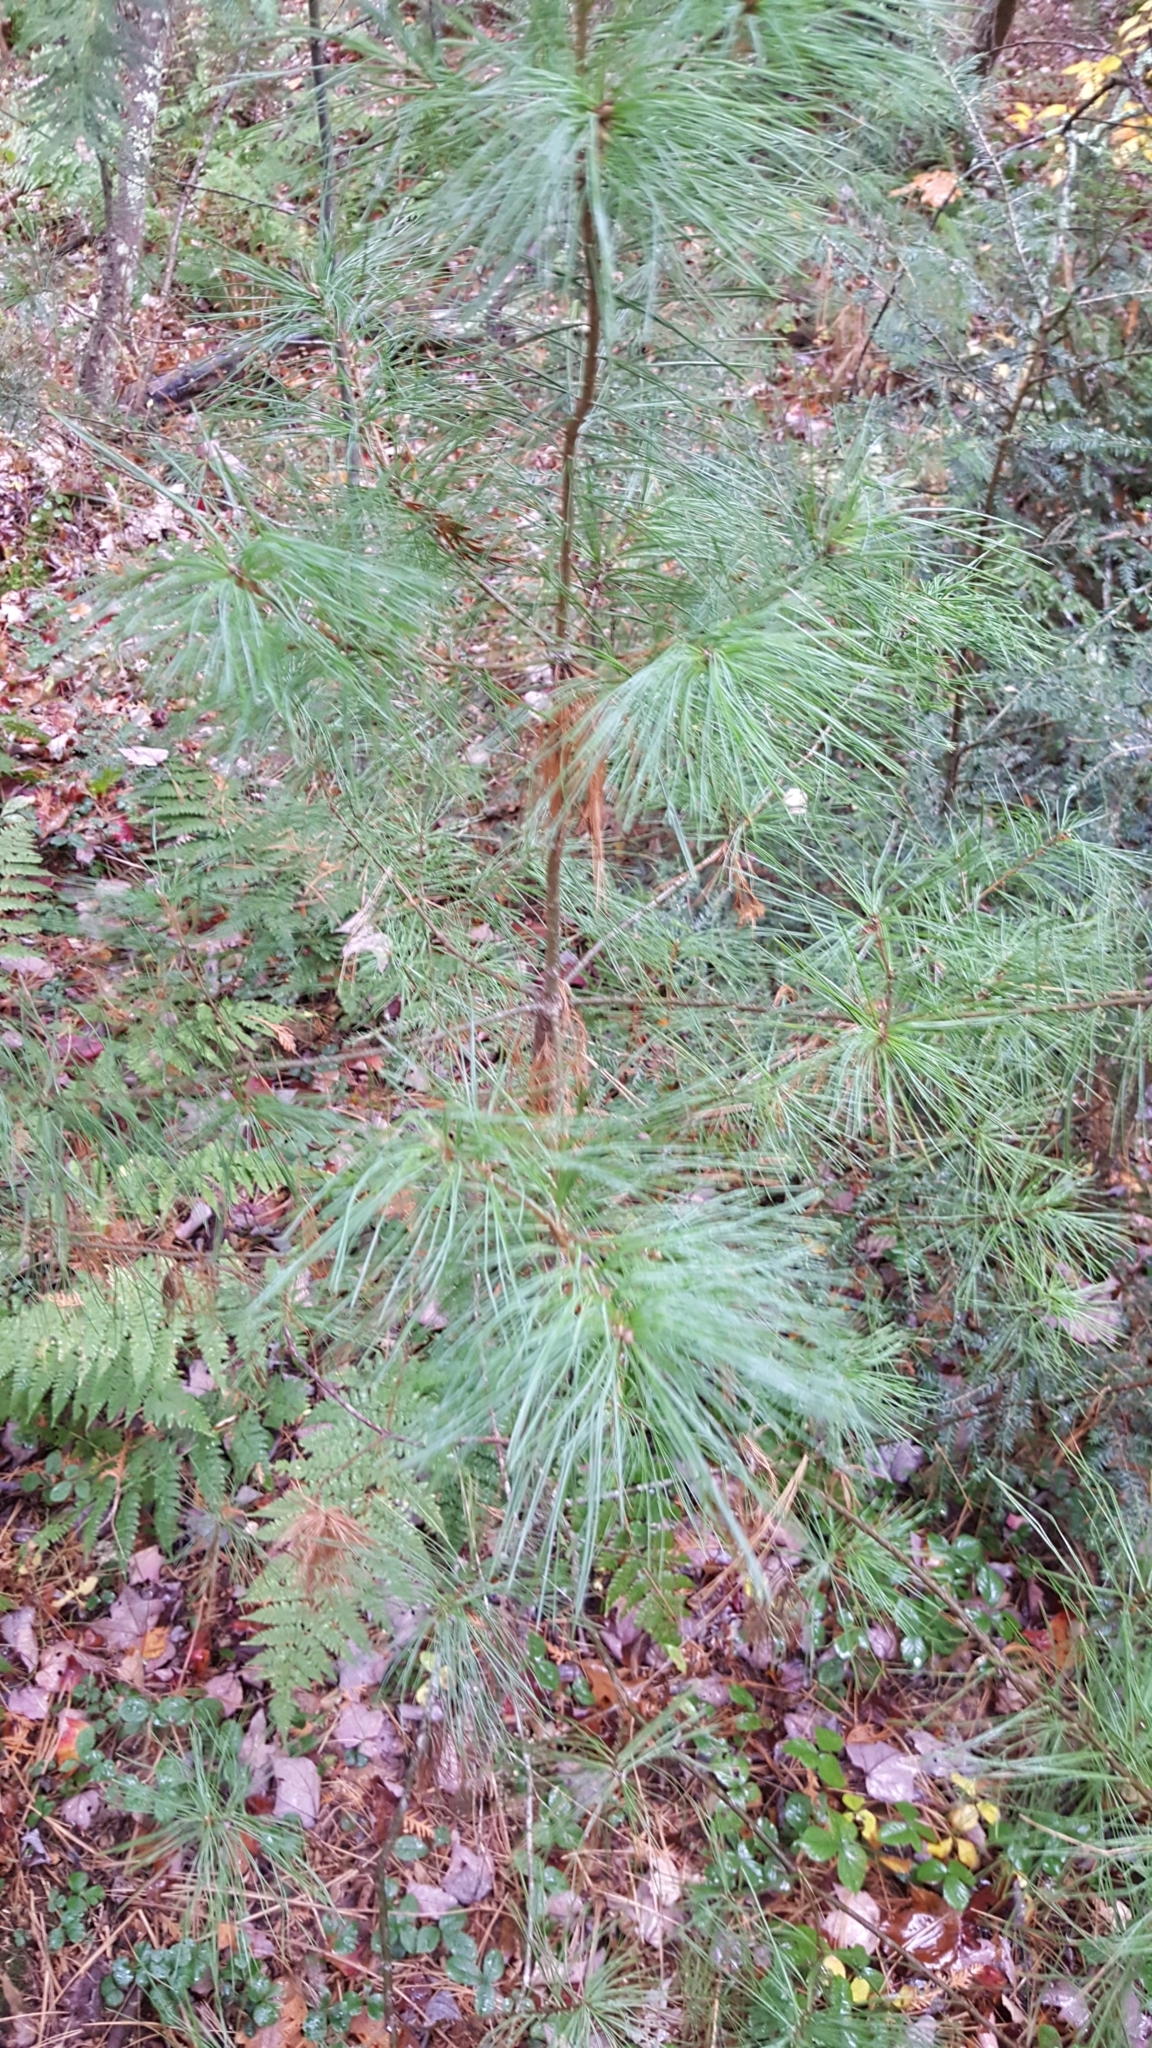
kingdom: Plantae
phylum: Tracheophyta
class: Pinopsida
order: Pinales
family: Pinaceae
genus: Pinus
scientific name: Pinus strobus
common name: Weymouth pine
